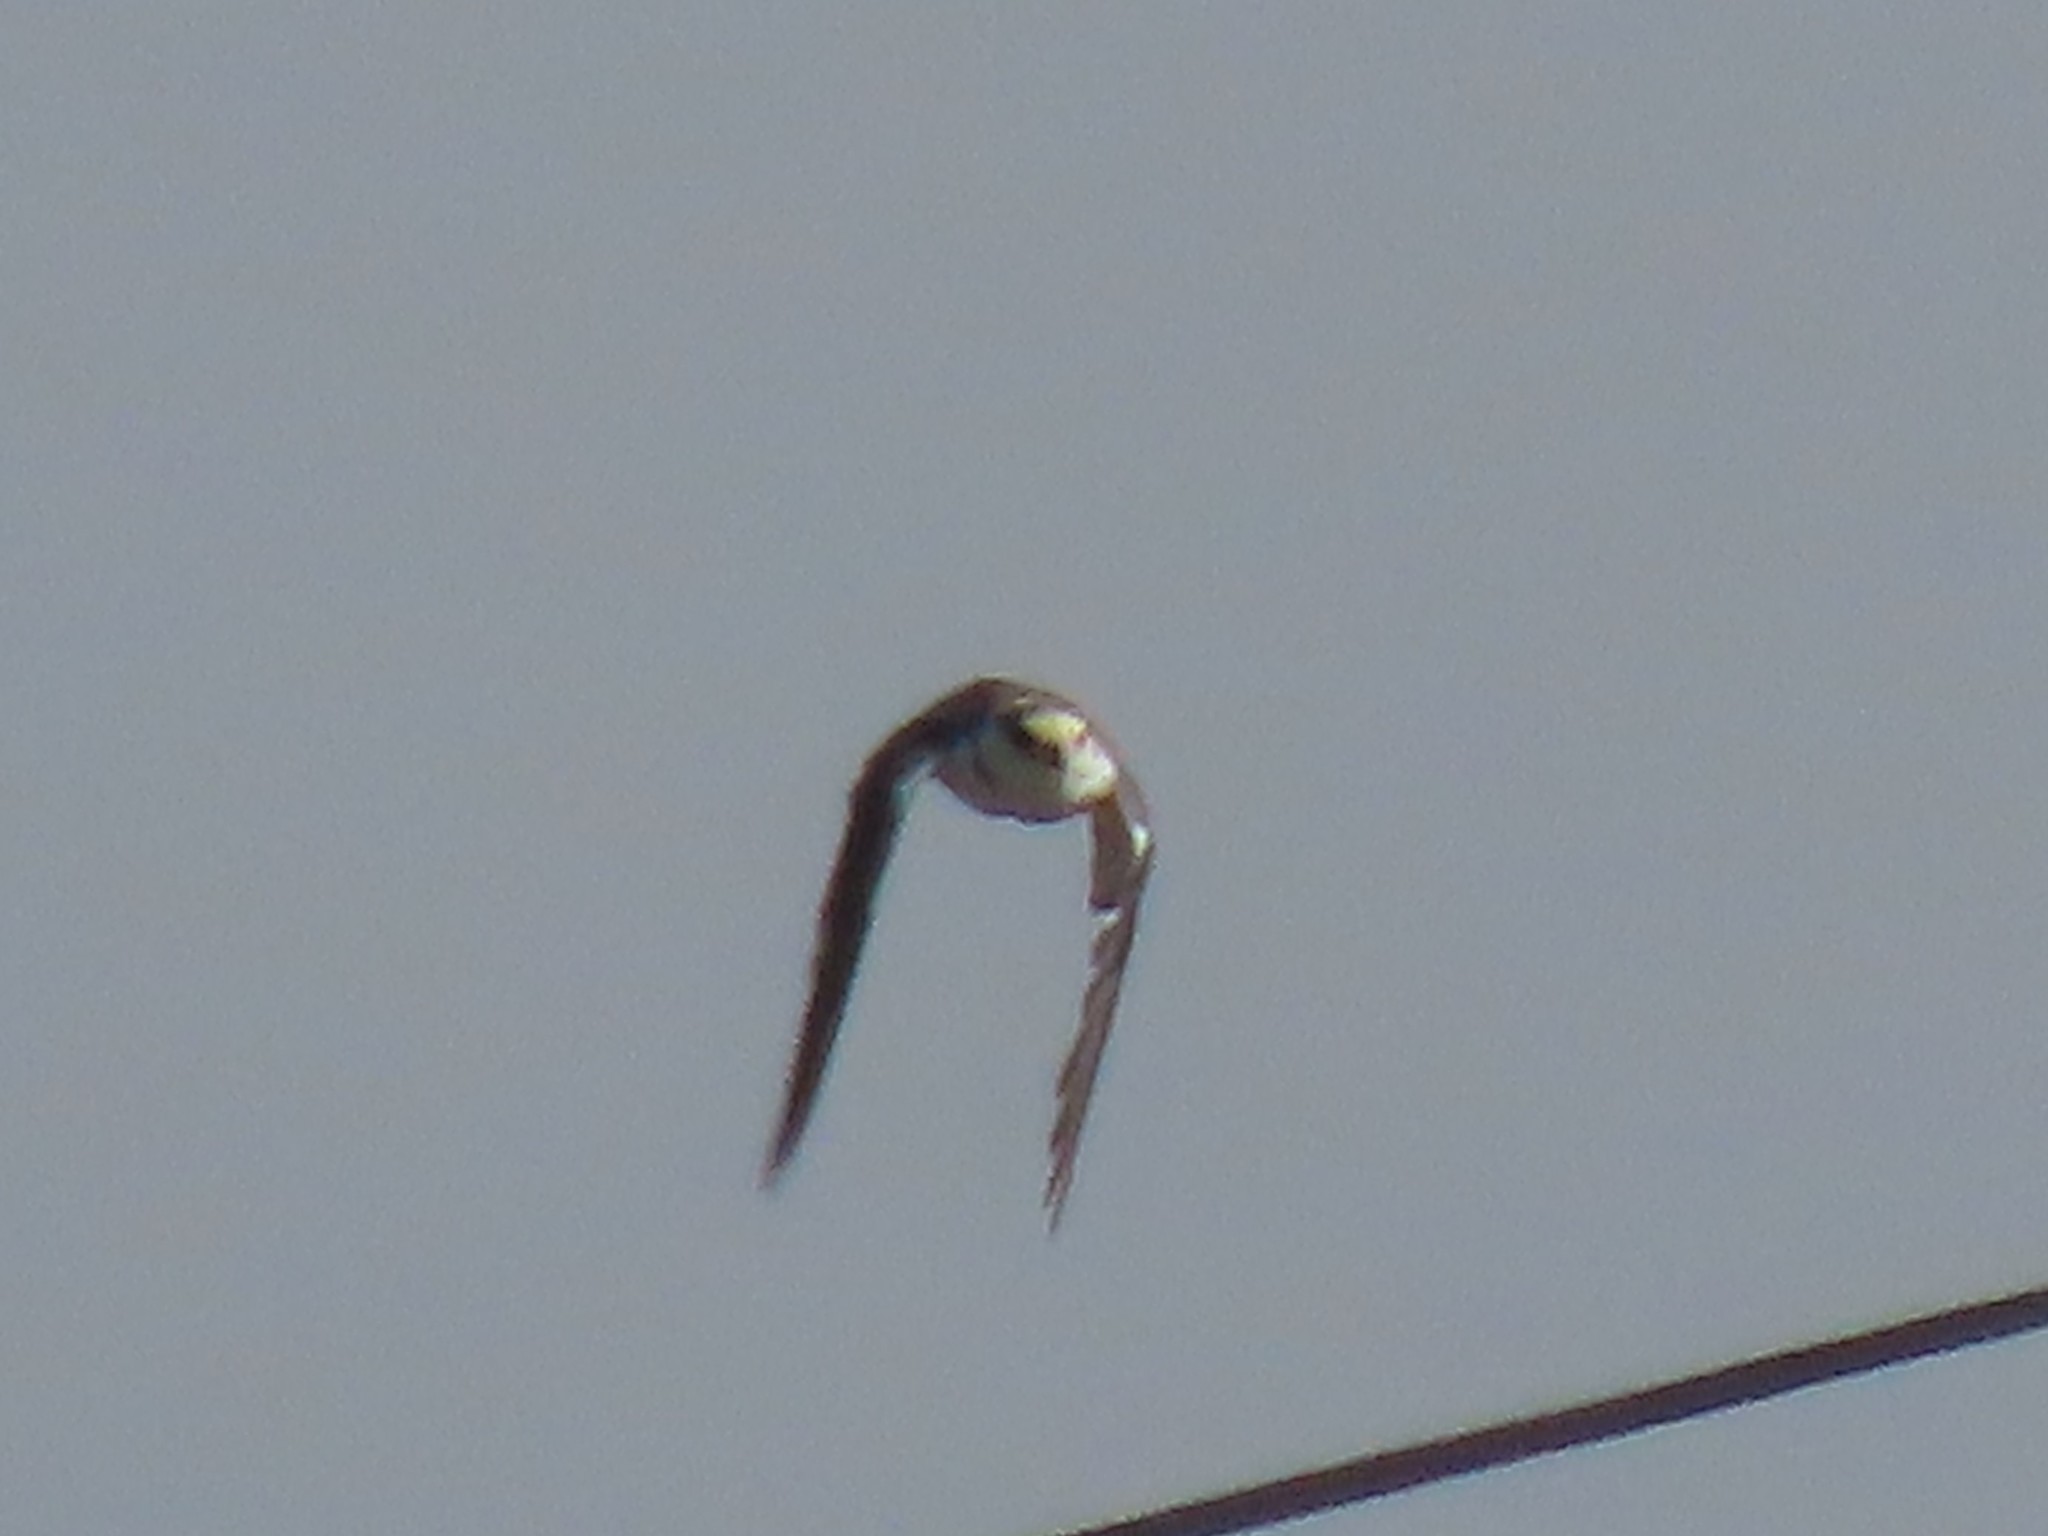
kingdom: Animalia
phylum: Chordata
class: Aves
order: Accipitriformes
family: Accipitridae
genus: Gampsonyx
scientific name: Gampsonyx swainsonii
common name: Pearl kite
